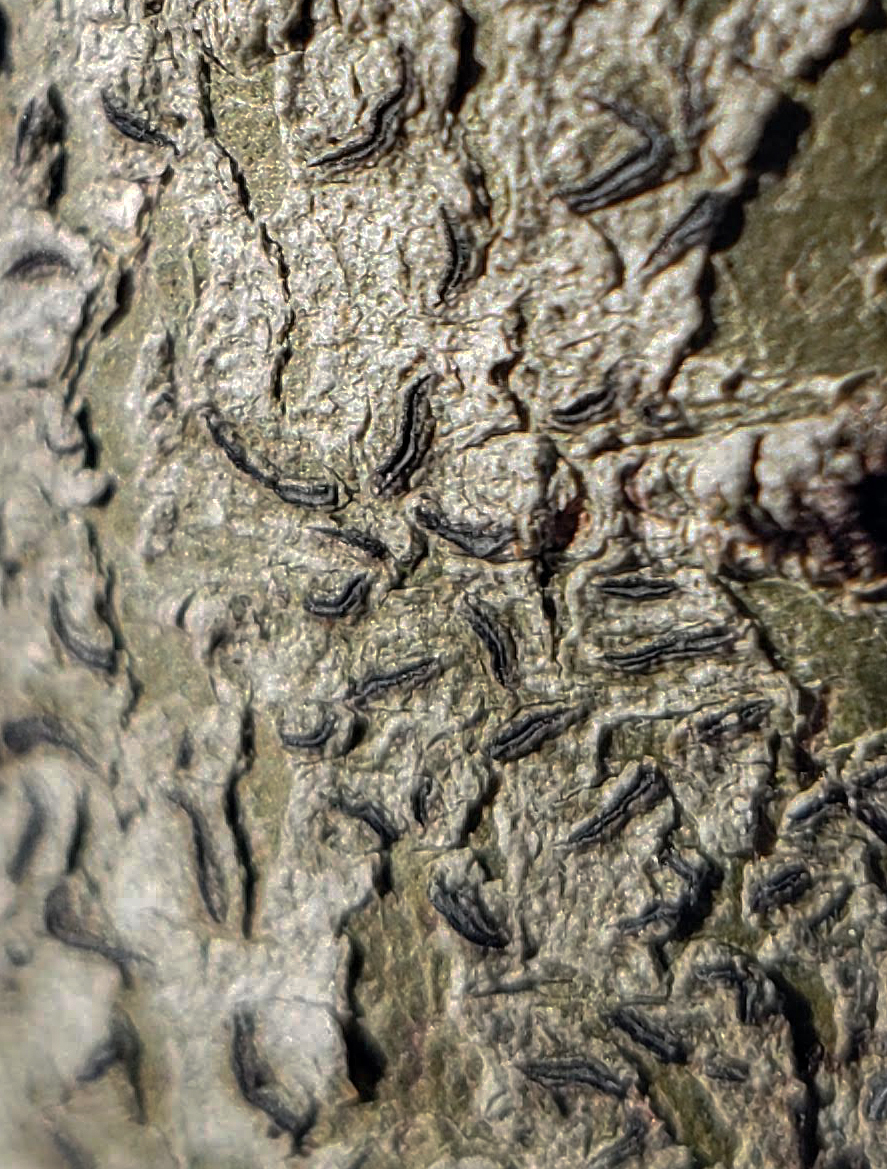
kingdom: Fungi
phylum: Ascomycota
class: Lecanoromycetes
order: Ostropales
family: Graphidaceae
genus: Graphis
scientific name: Graphis scripta
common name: Script lichen
